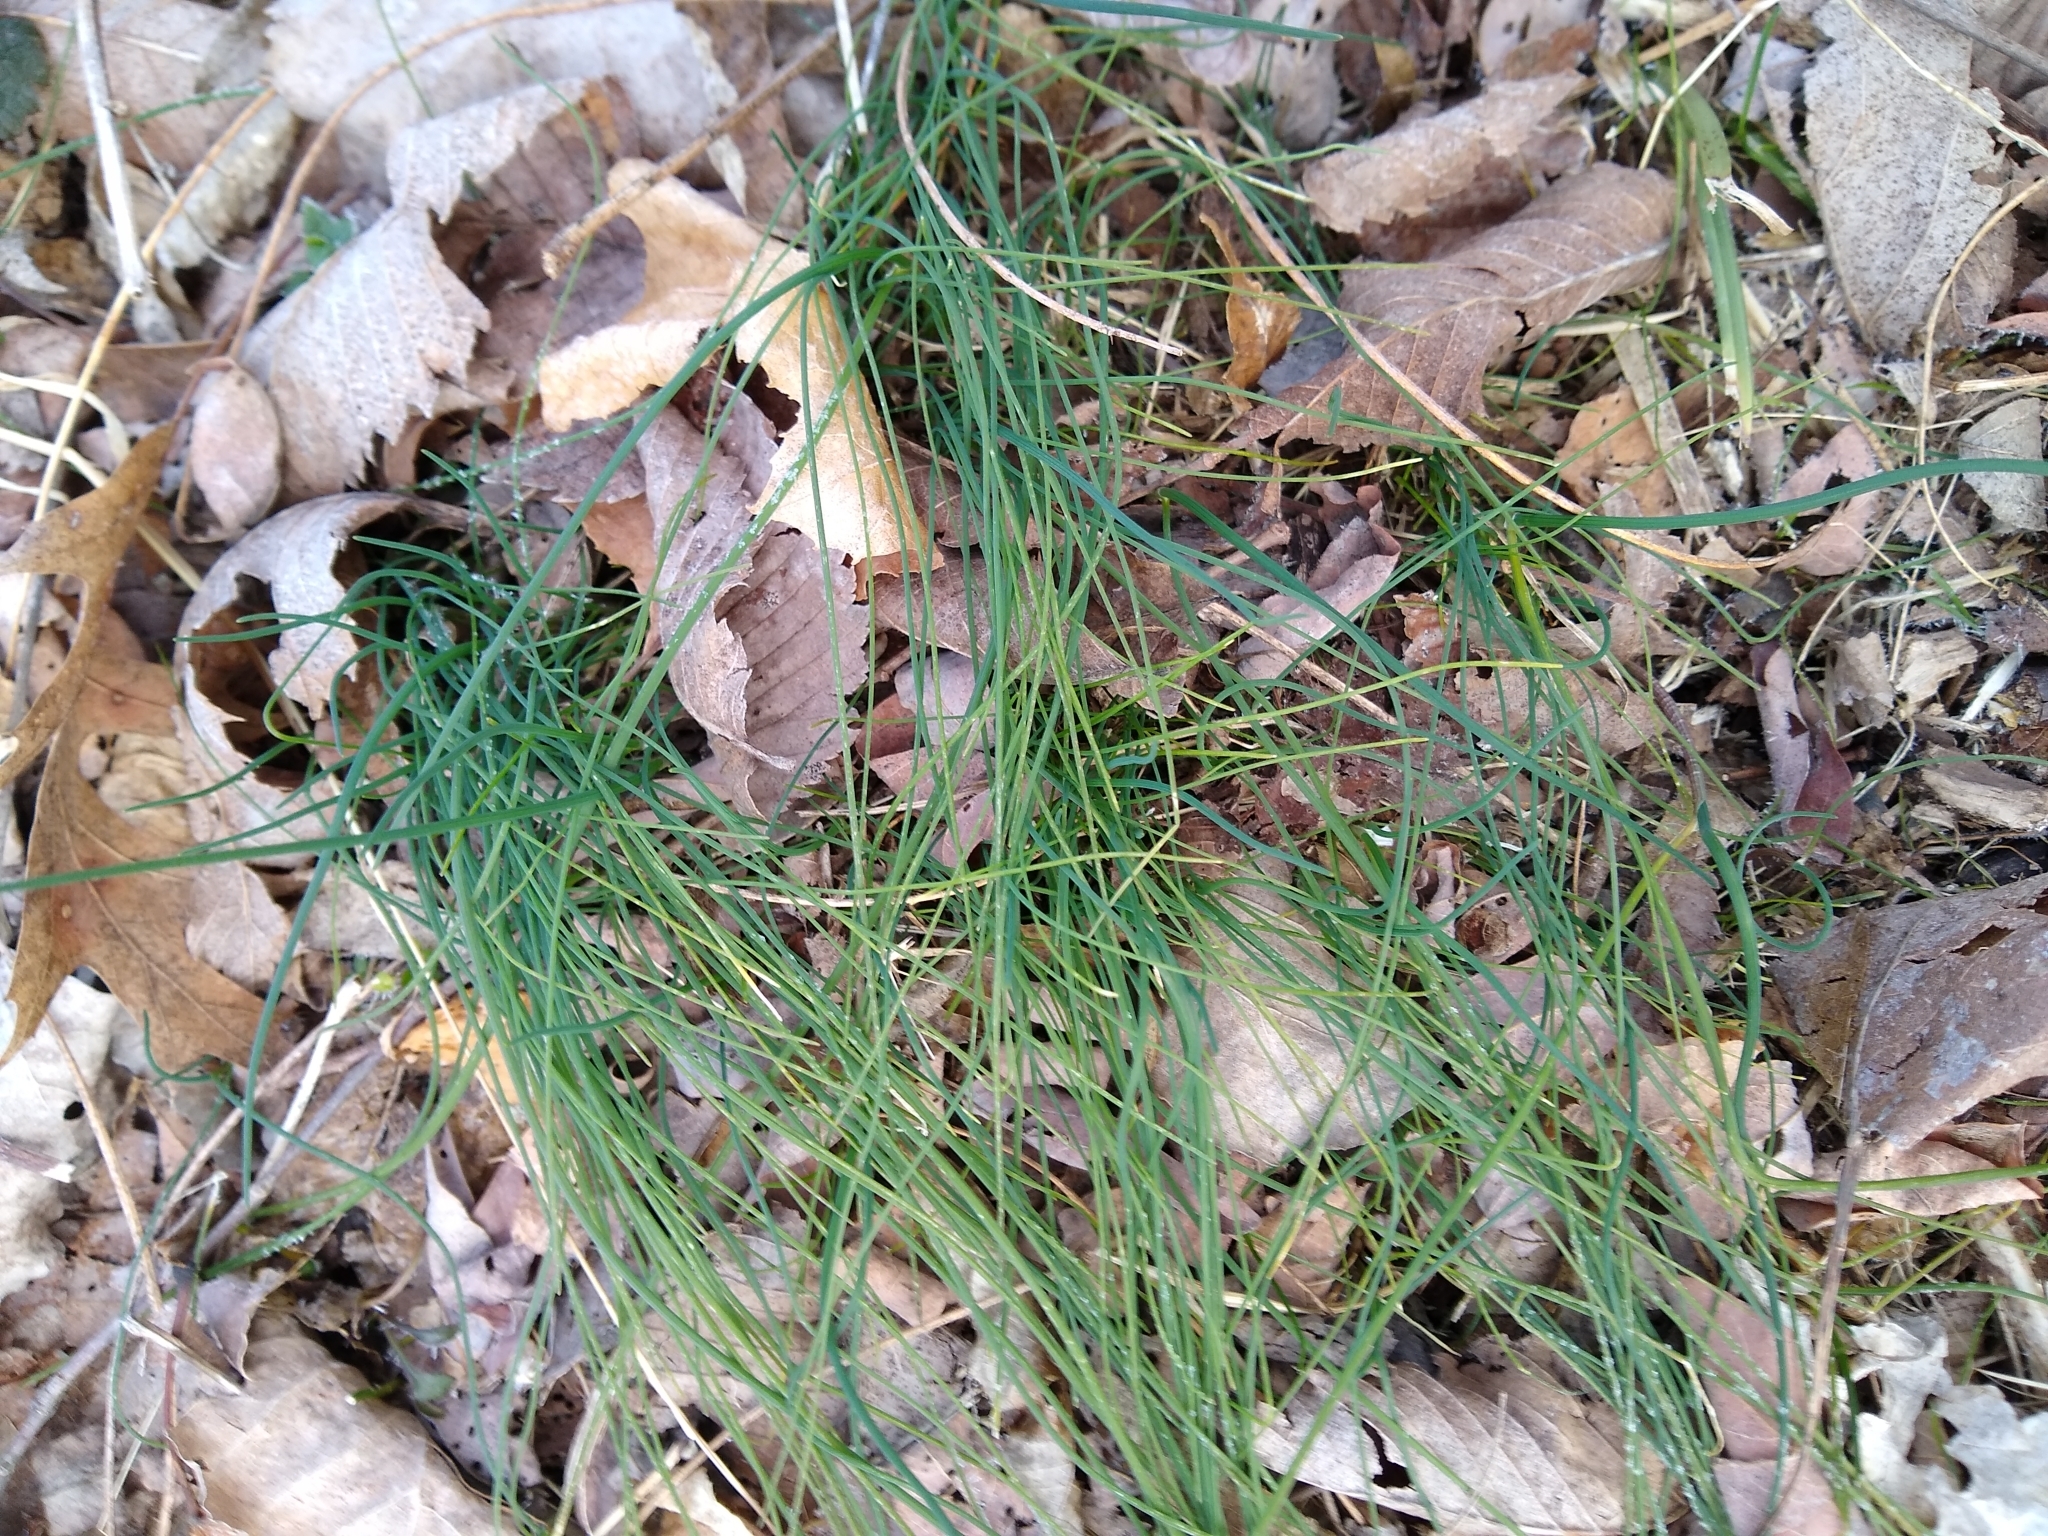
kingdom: Plantae
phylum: Tracheophyta
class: Liliopsida
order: Asparagales
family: Amaryllidaceae
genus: Allium
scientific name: Allium vineale
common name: Crow garlic
